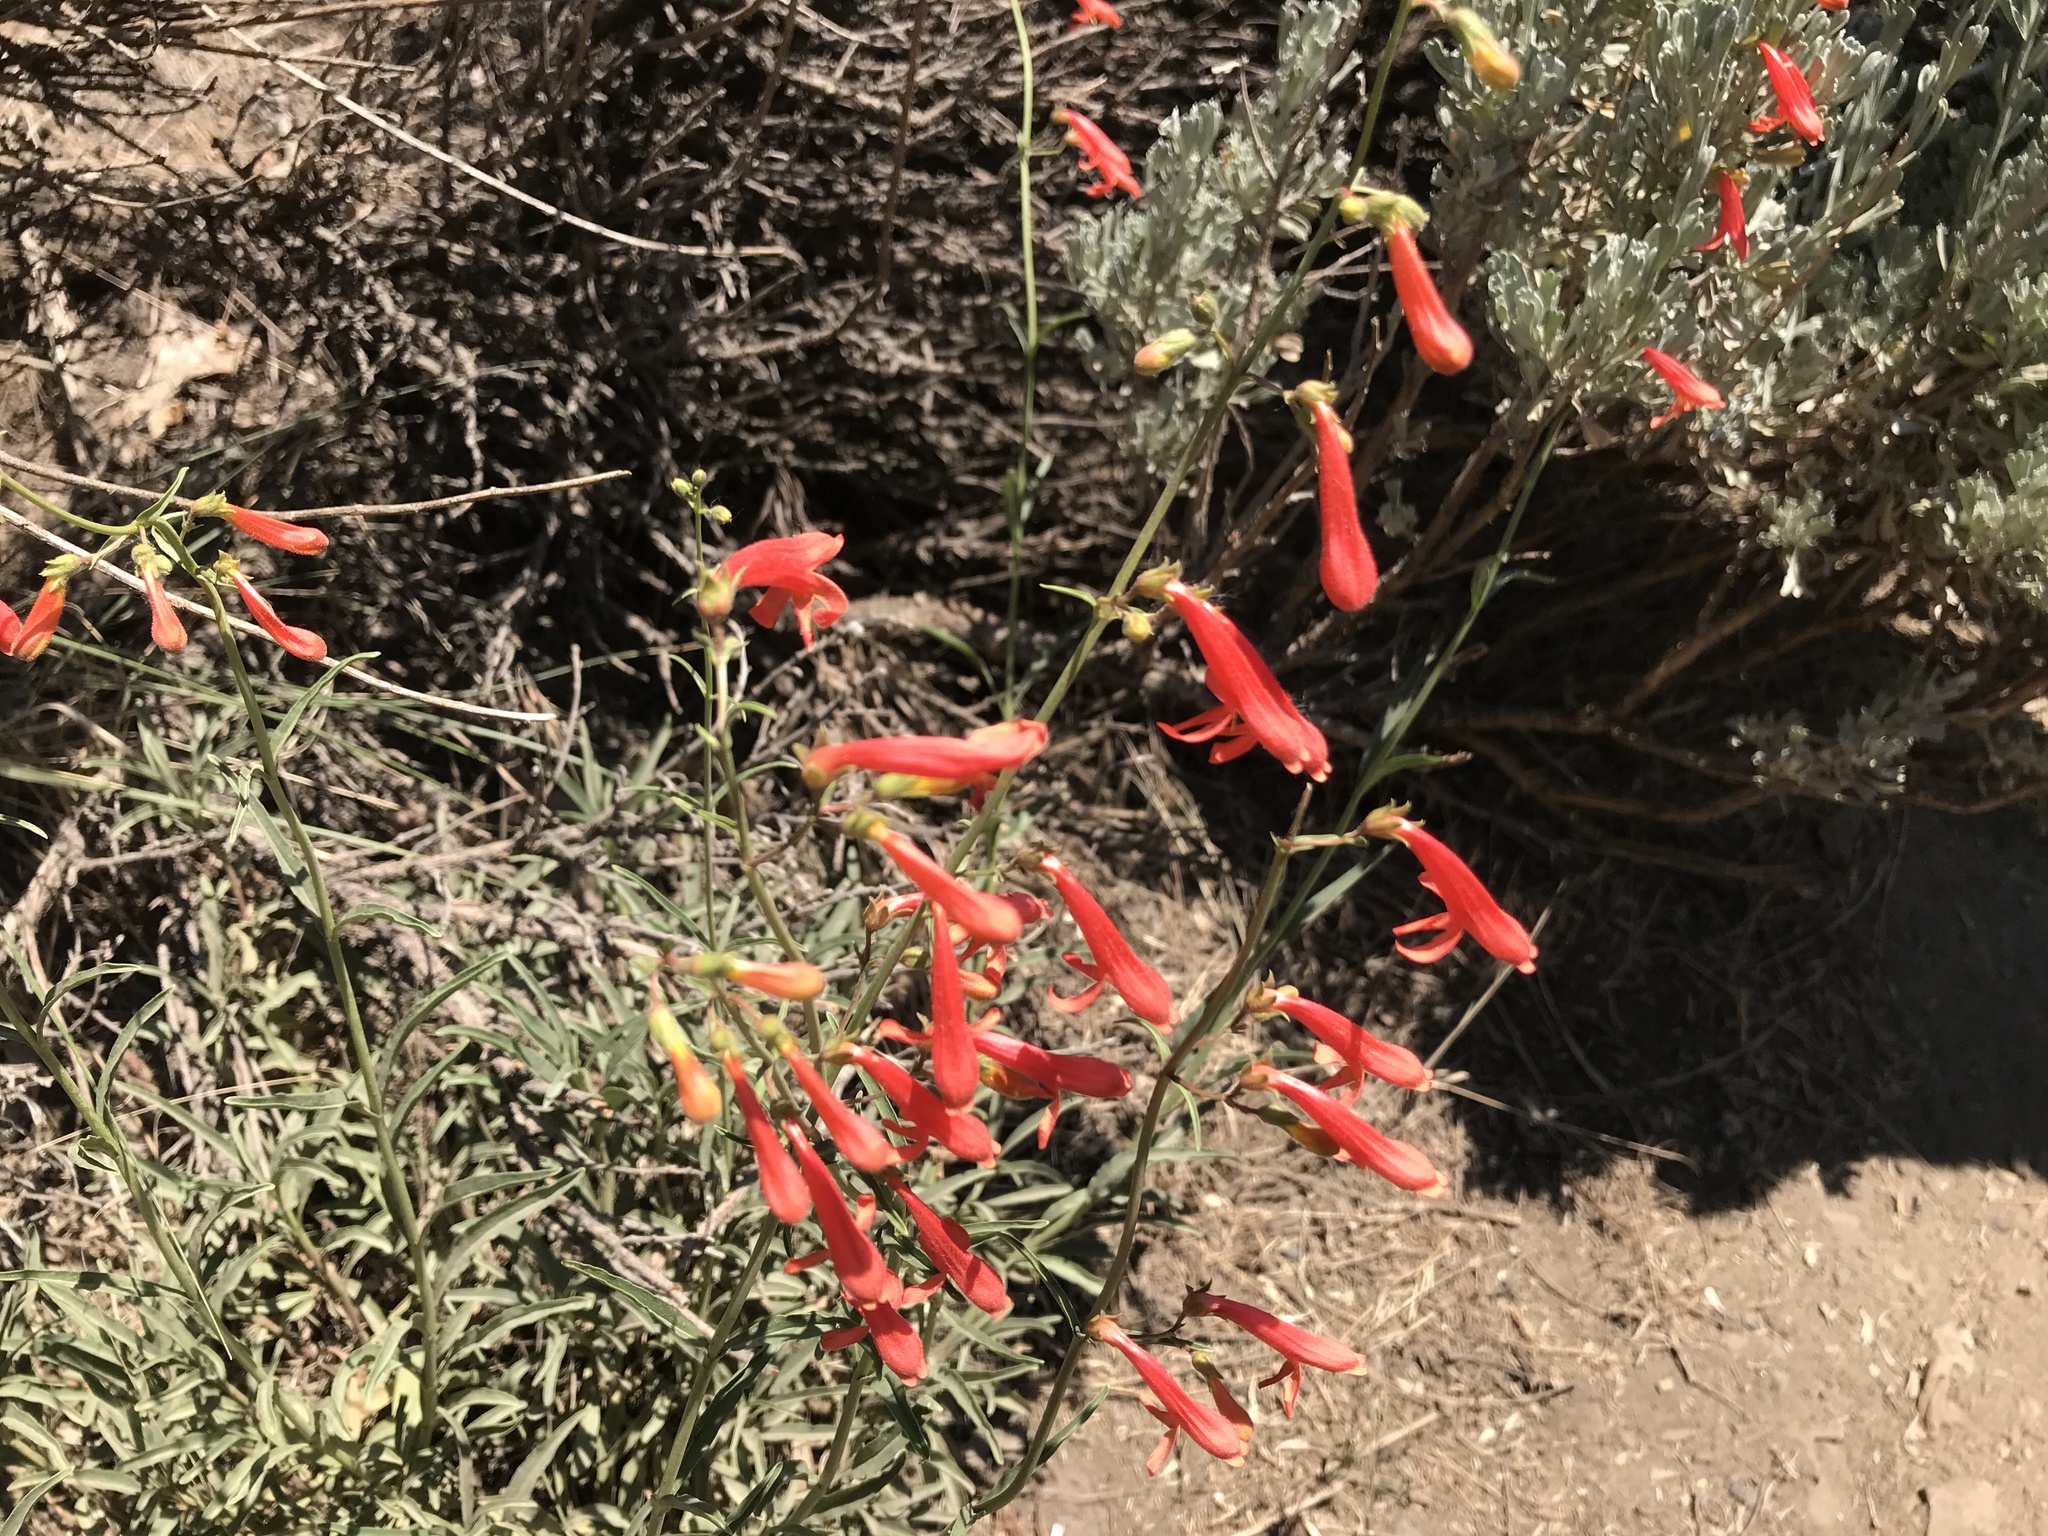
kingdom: Plantae
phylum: Tracheophyta
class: Magnoliopsida
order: Lamiales
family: Plantaginaceae
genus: Penstemon
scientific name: Penstemon rostriflorus
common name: Bridges's penstemon
